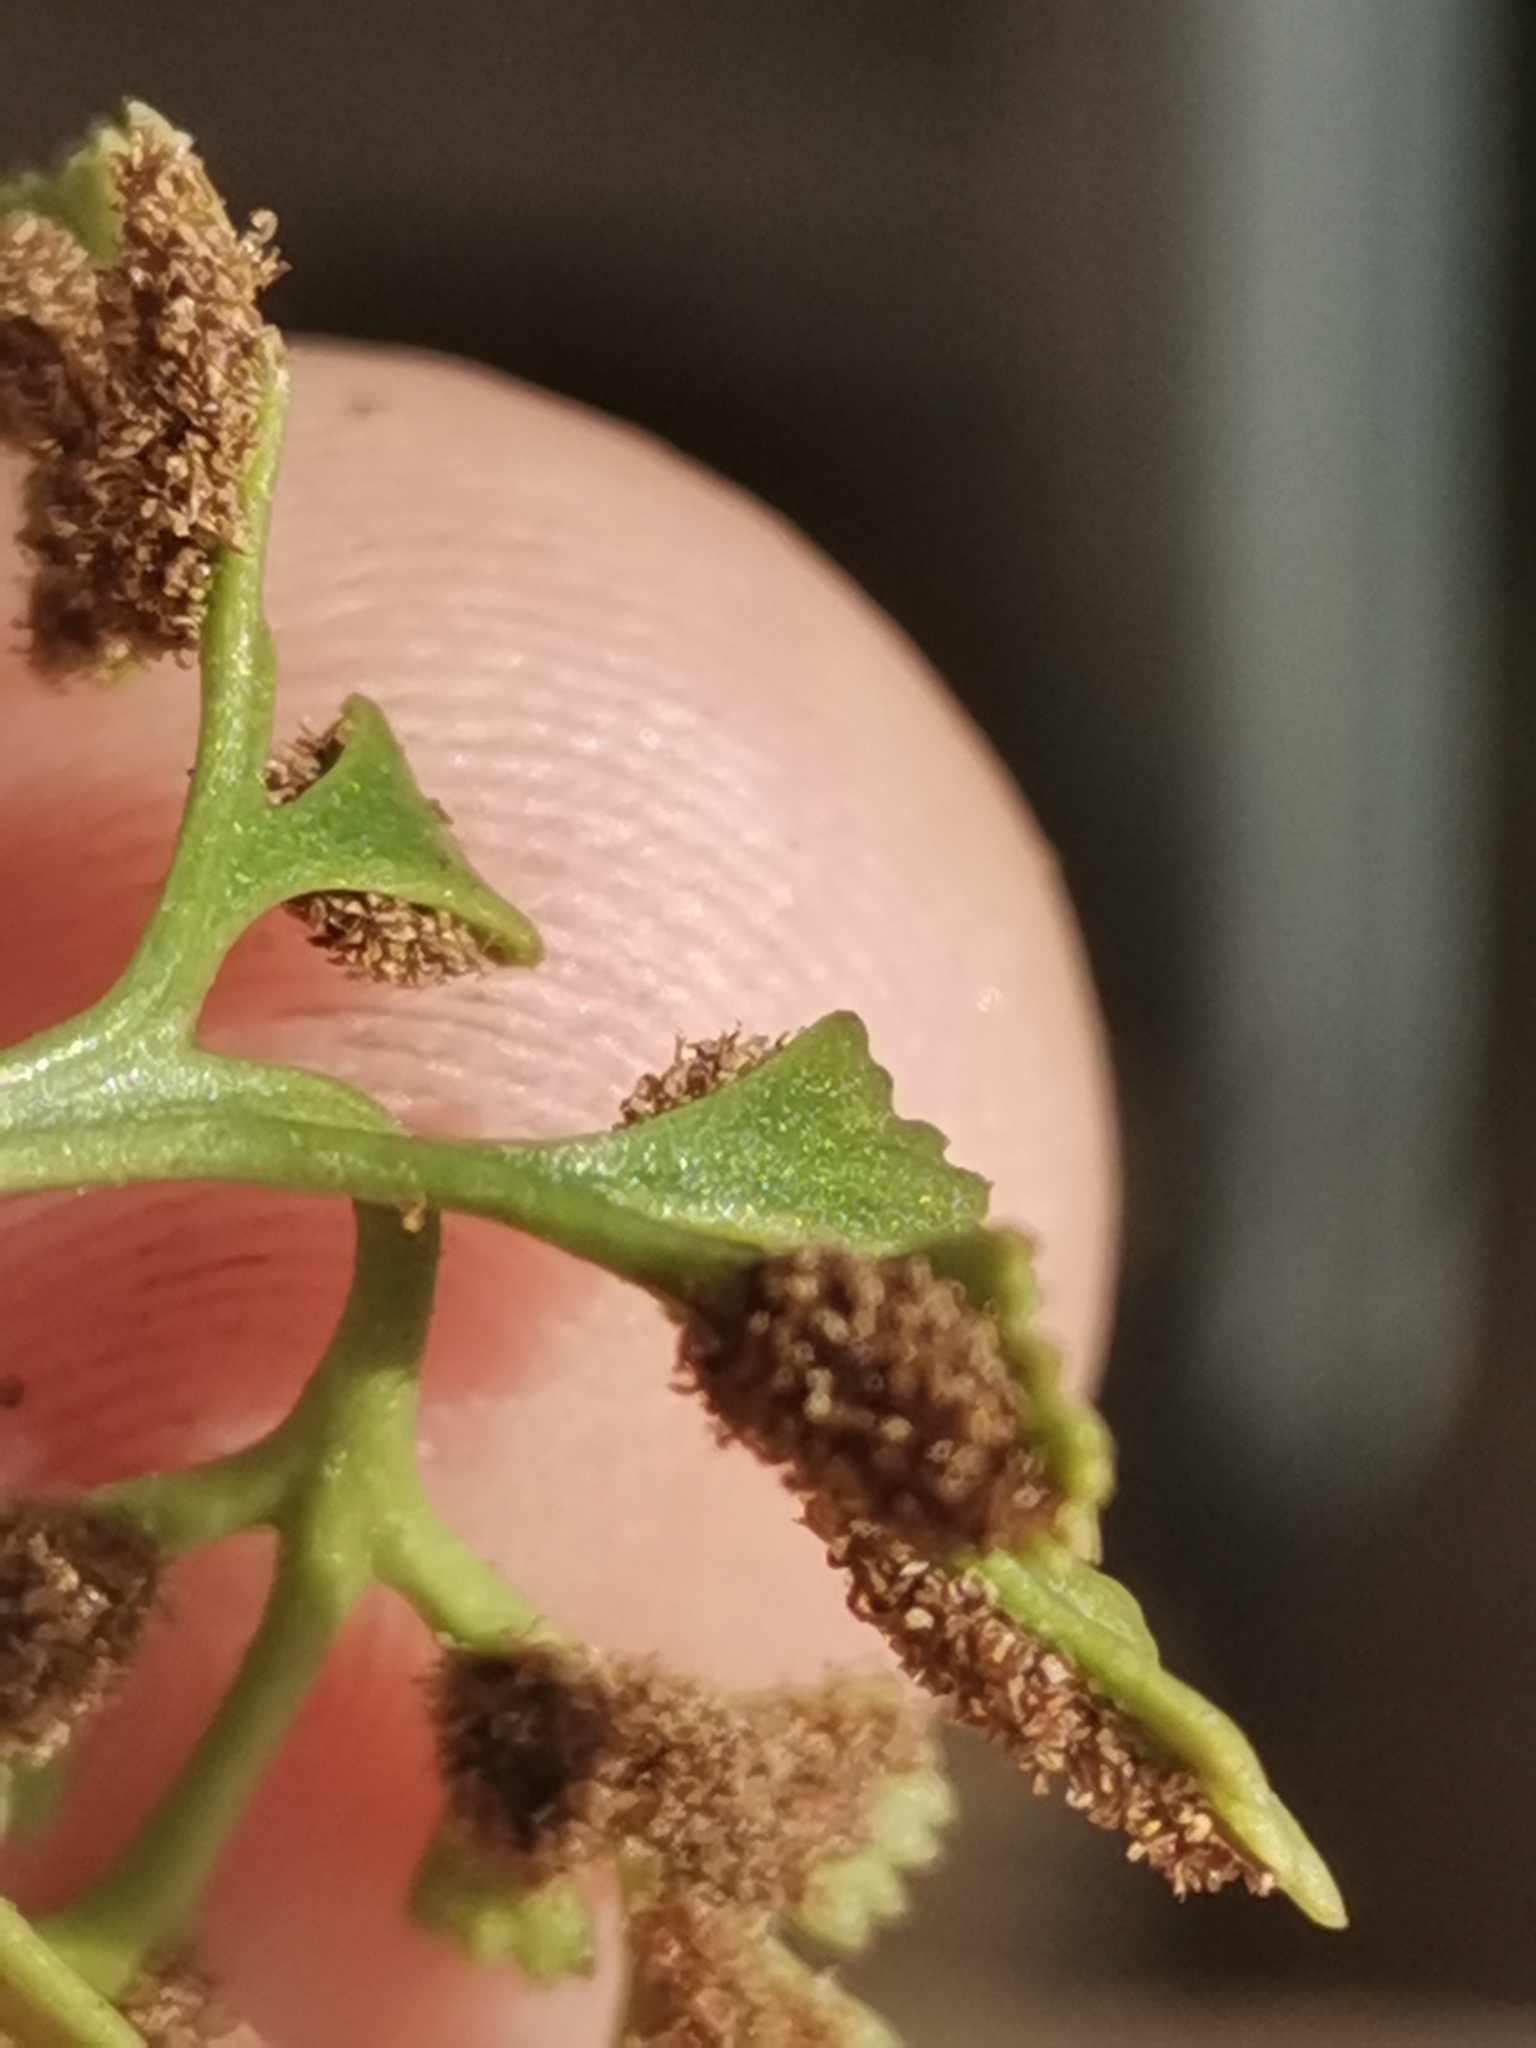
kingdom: Plantae
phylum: Tracheophyta
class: Polypodiopsida
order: Polypodiales
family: Aspleniaceae
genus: Asplenium
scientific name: Asplenium lepidum
